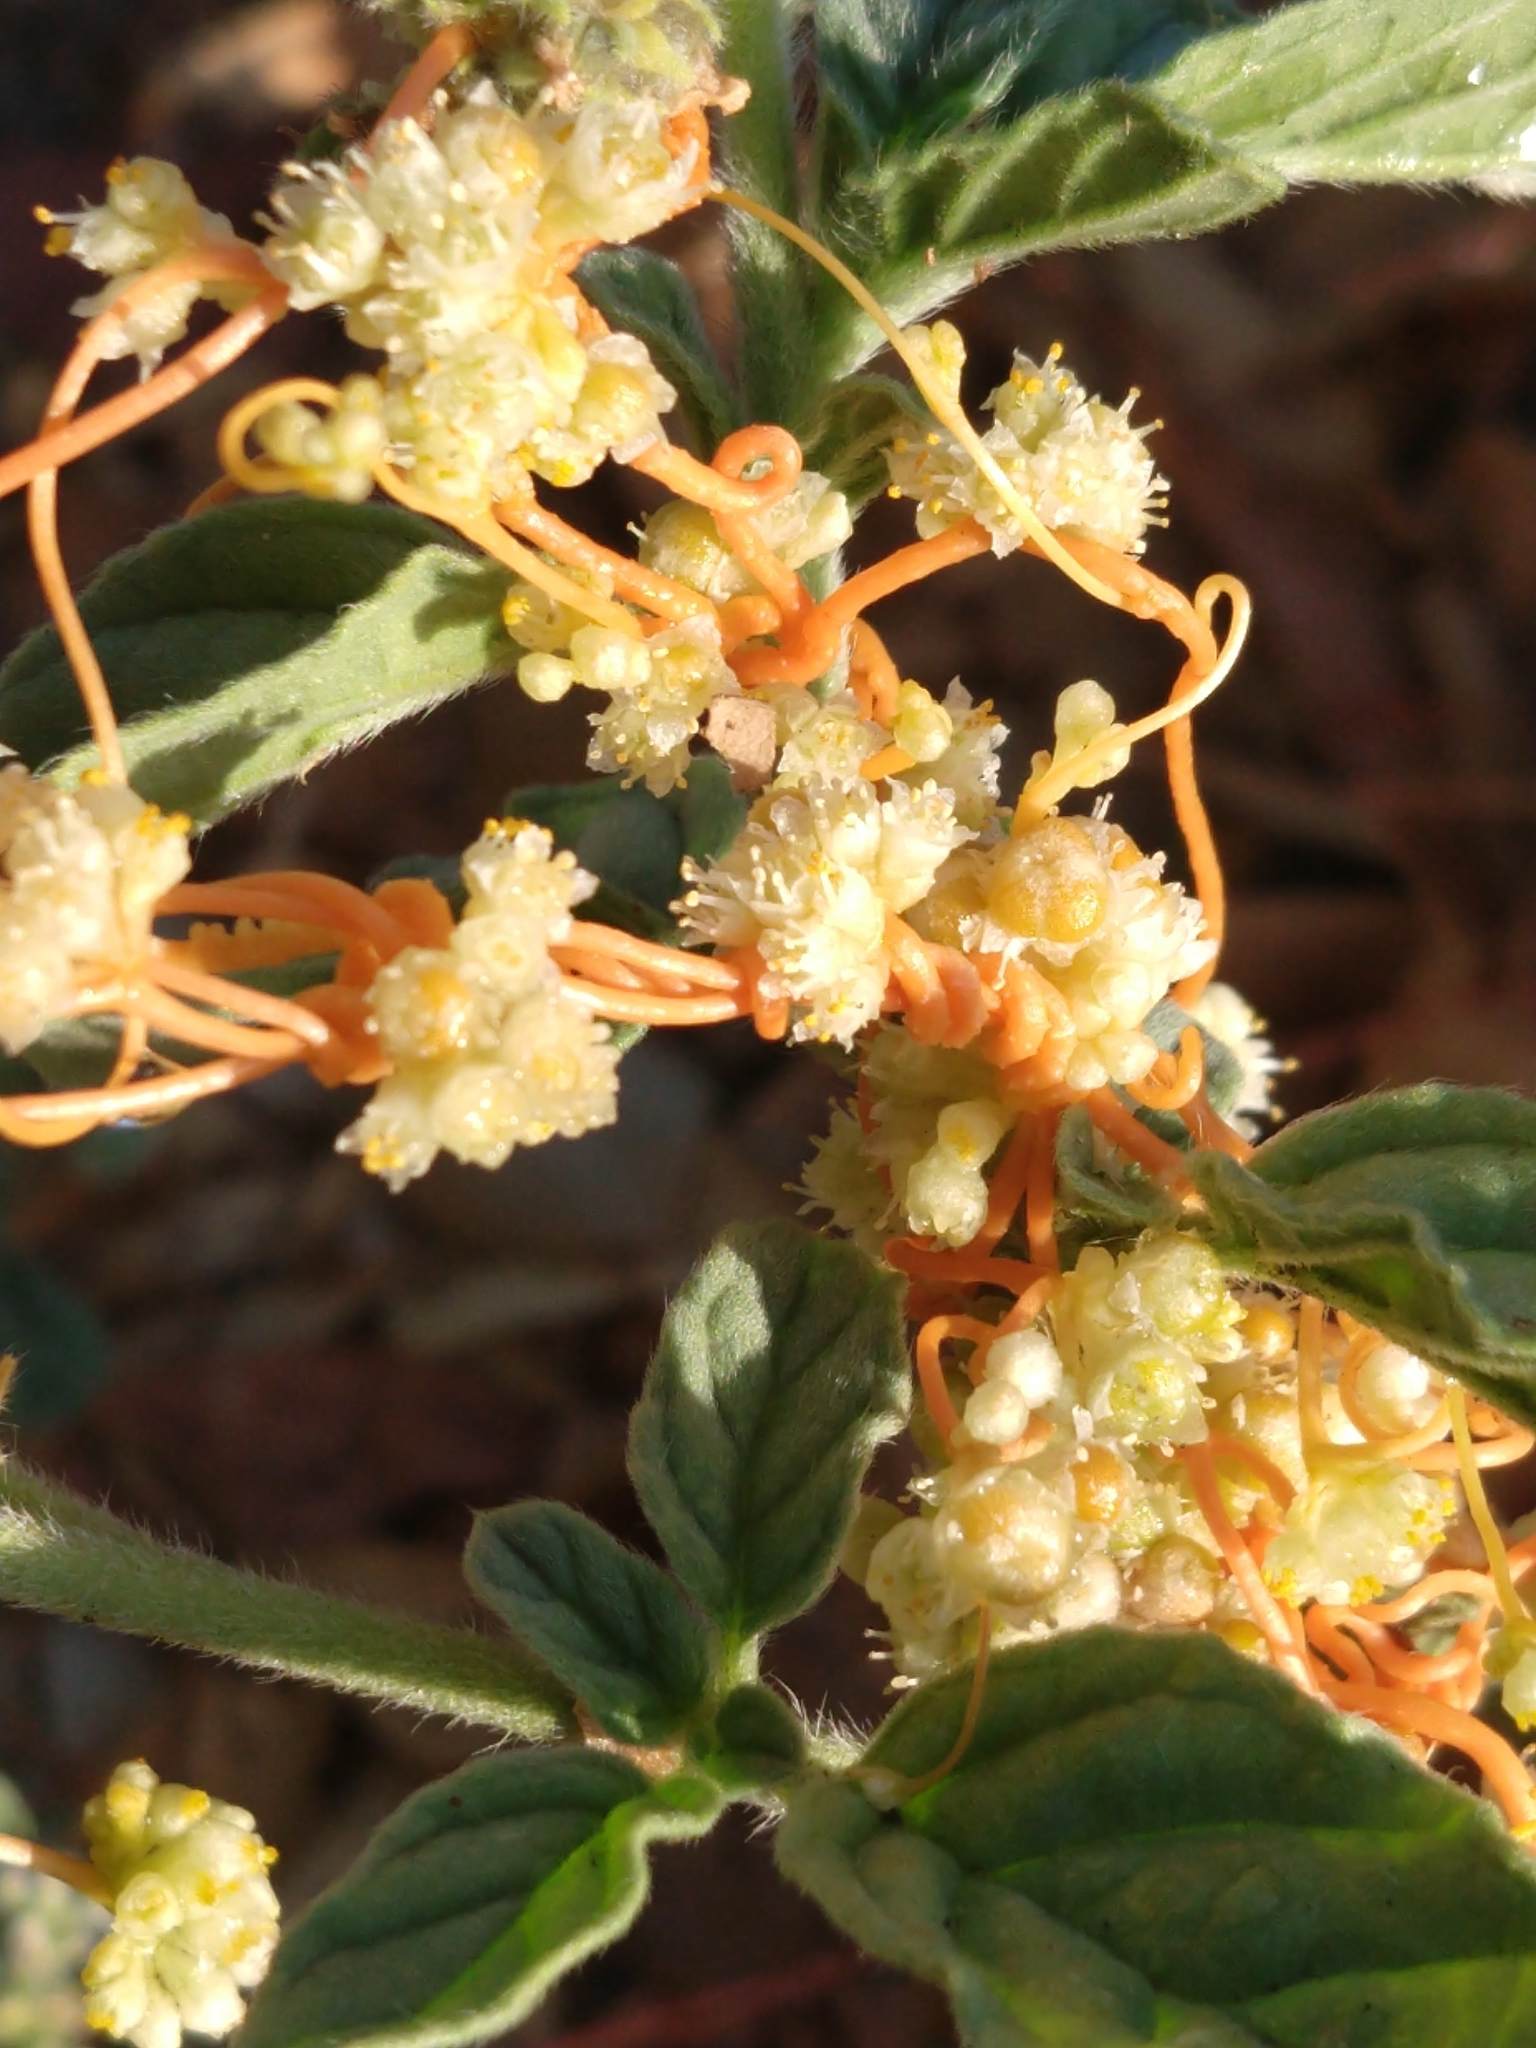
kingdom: Plantae
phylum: Tracheophyta
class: Magnoliopsida
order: Solanales
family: Convolvulaceae
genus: Cuscuta
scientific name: Cuscuta campestris
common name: Yellow dodder
